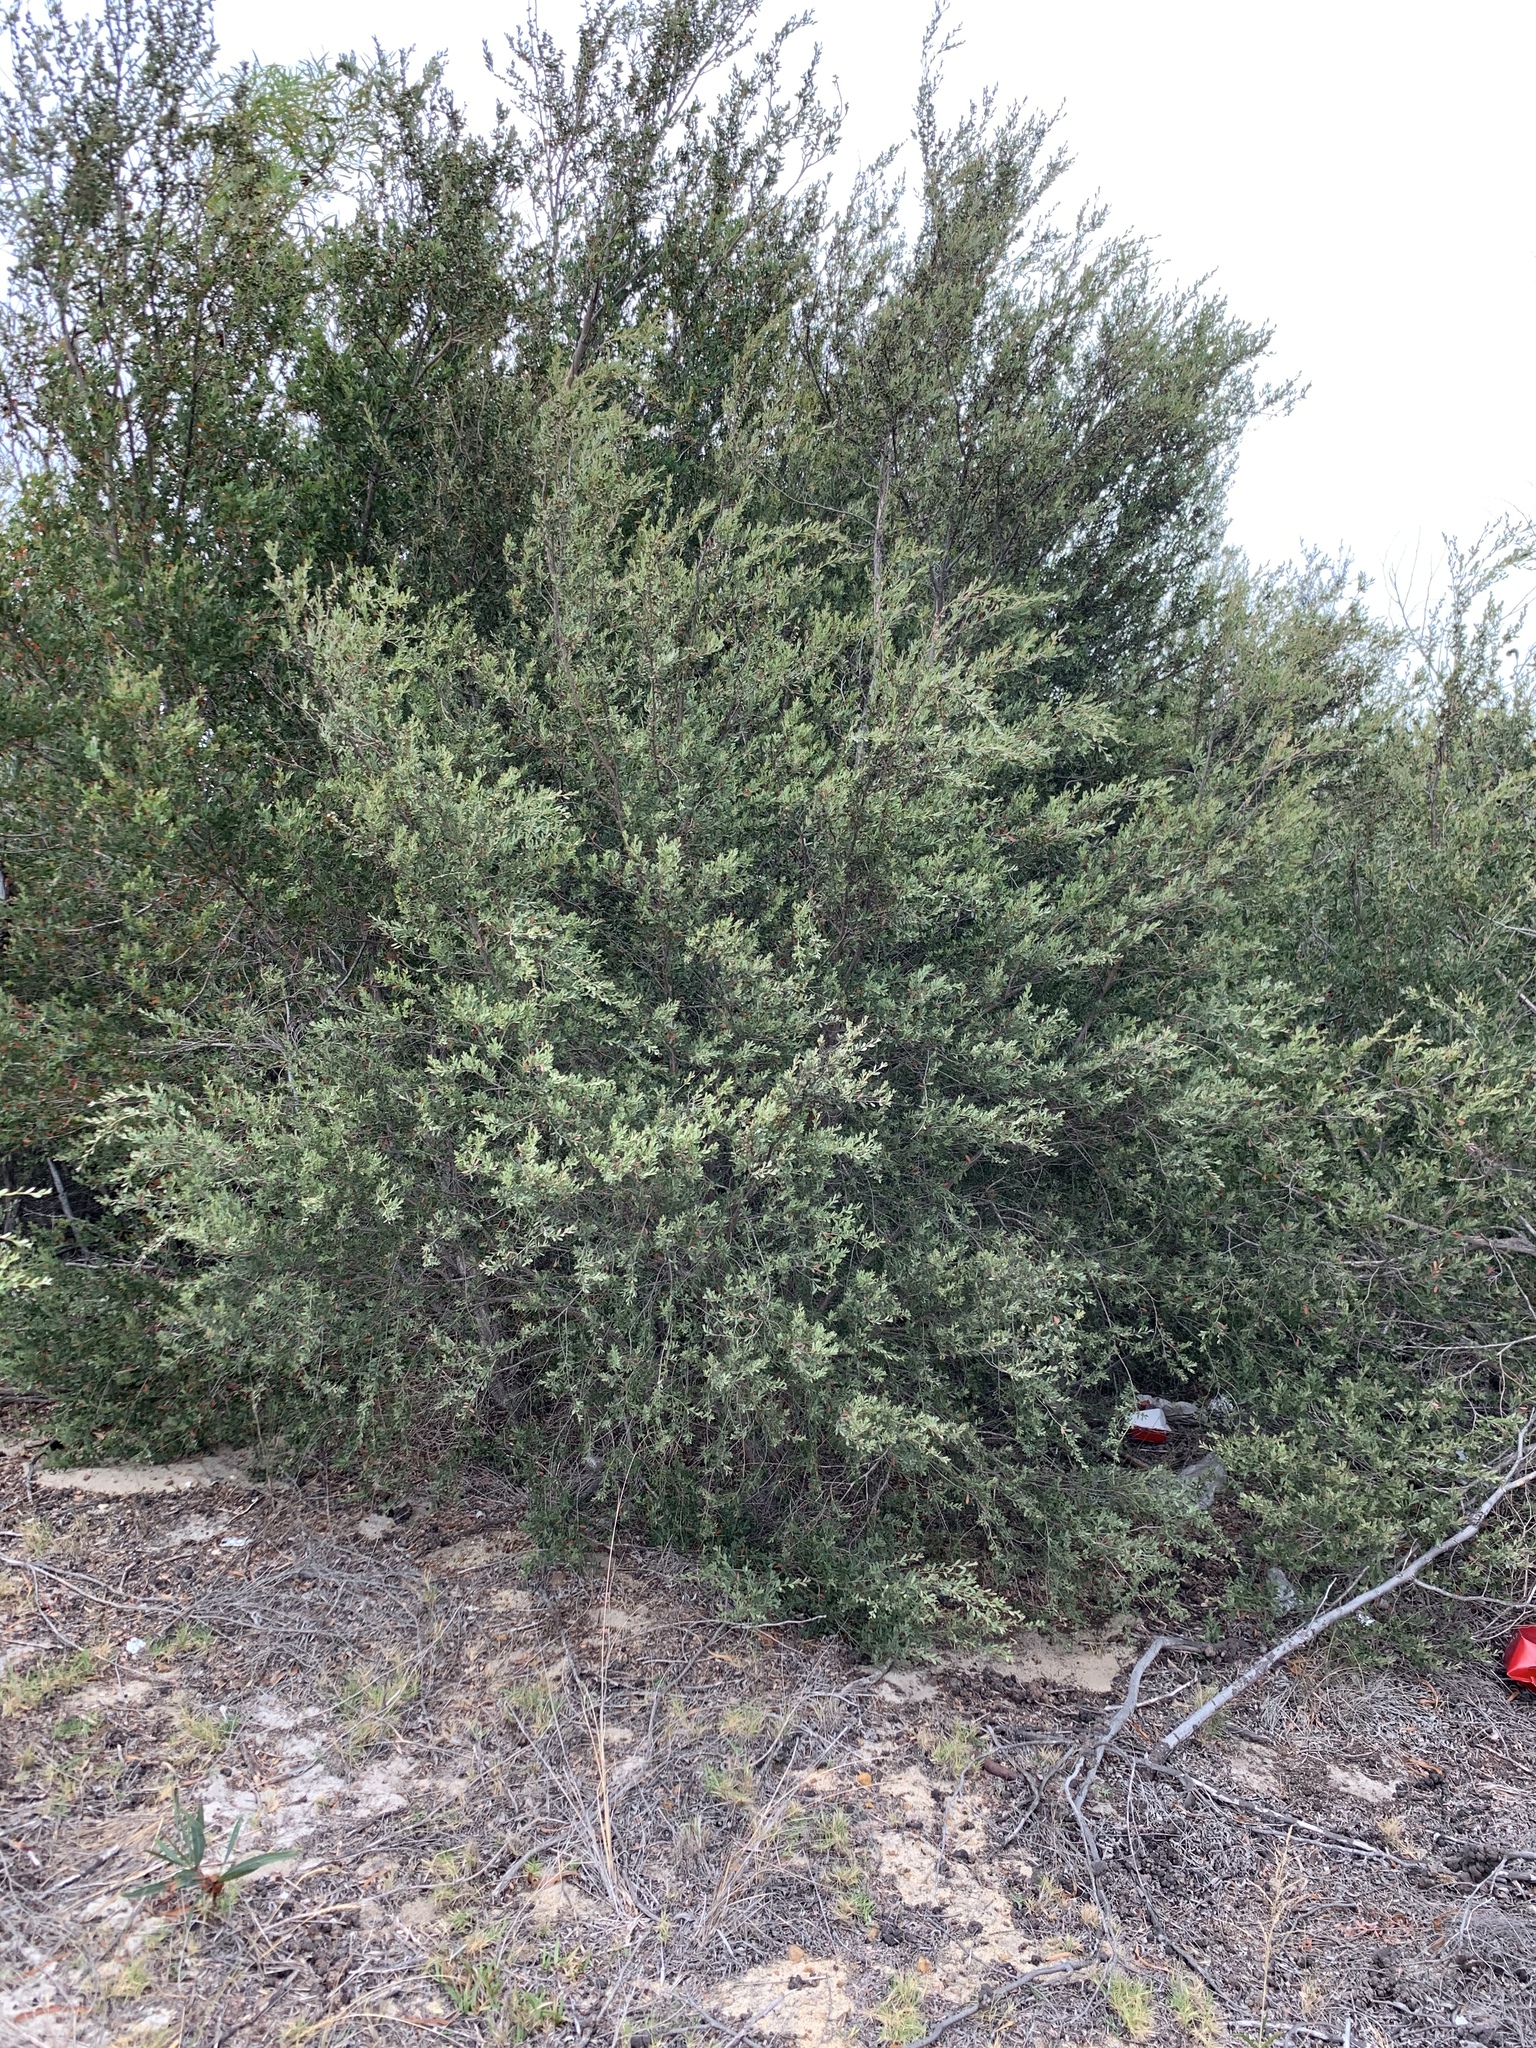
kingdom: Plantae
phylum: Tracheophyta
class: Magnoliopsida
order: Myrtales
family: Myrtaceae
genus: Leptospermum
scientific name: Leptospermum laevigatum
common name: Australian teatree
